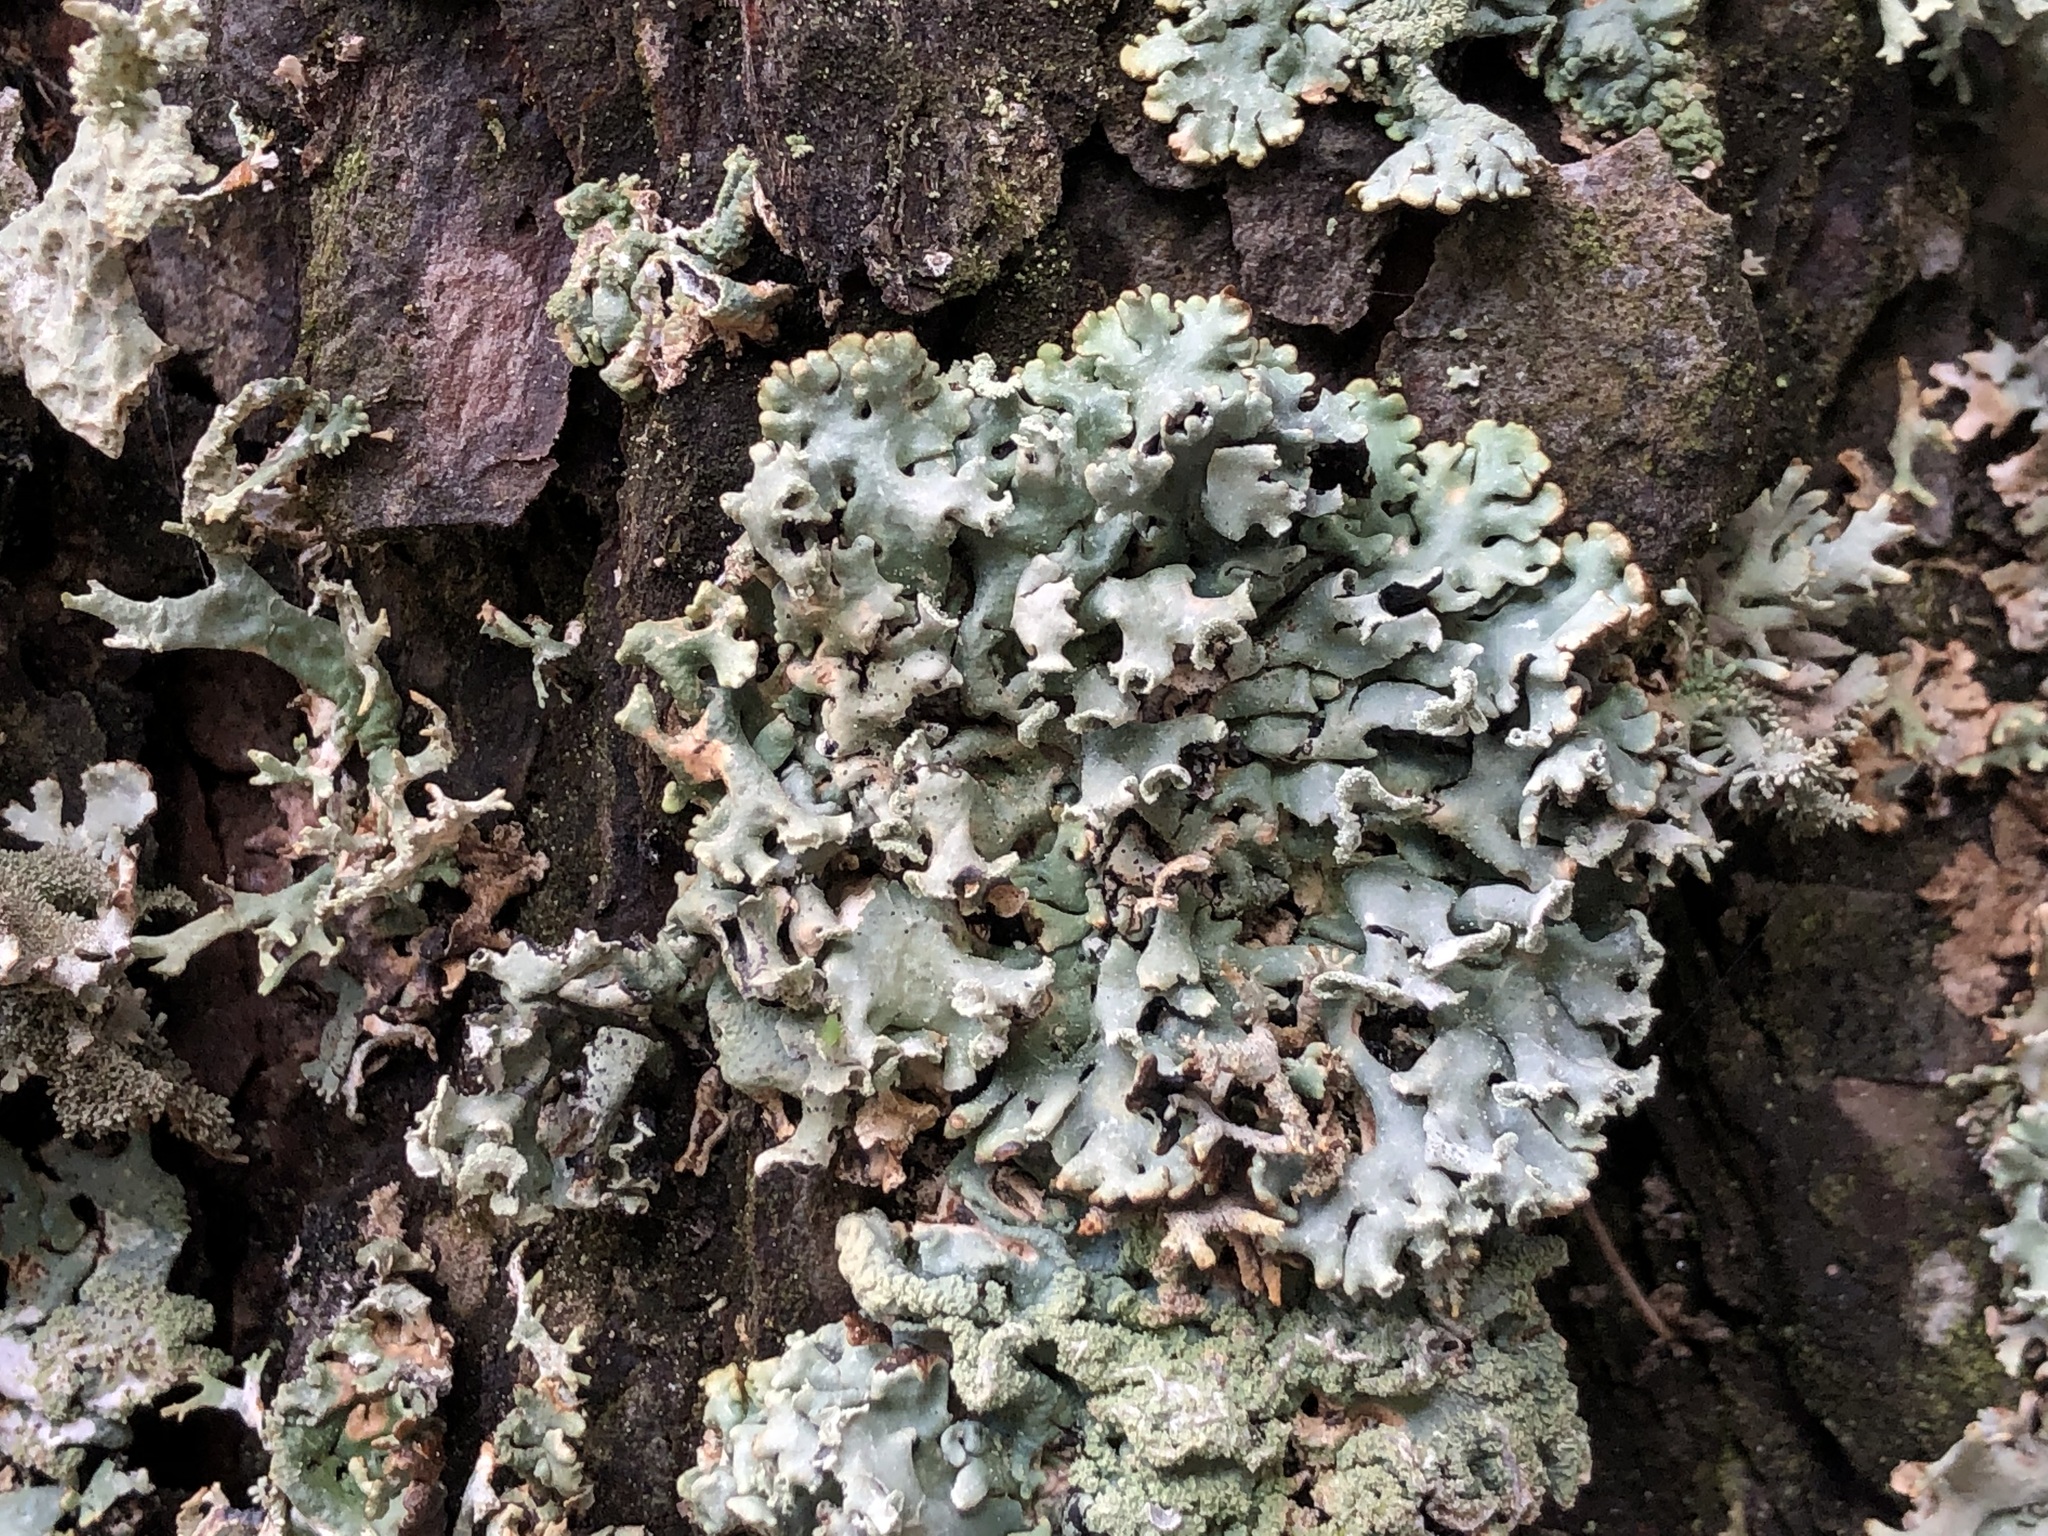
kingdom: Fungi
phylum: Ascomycota
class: Lecanoromycetes
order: Lecanorales
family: Parmeliaceae
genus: Hypogymnia
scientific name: Hypogymnia physodes
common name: Dark crottle
